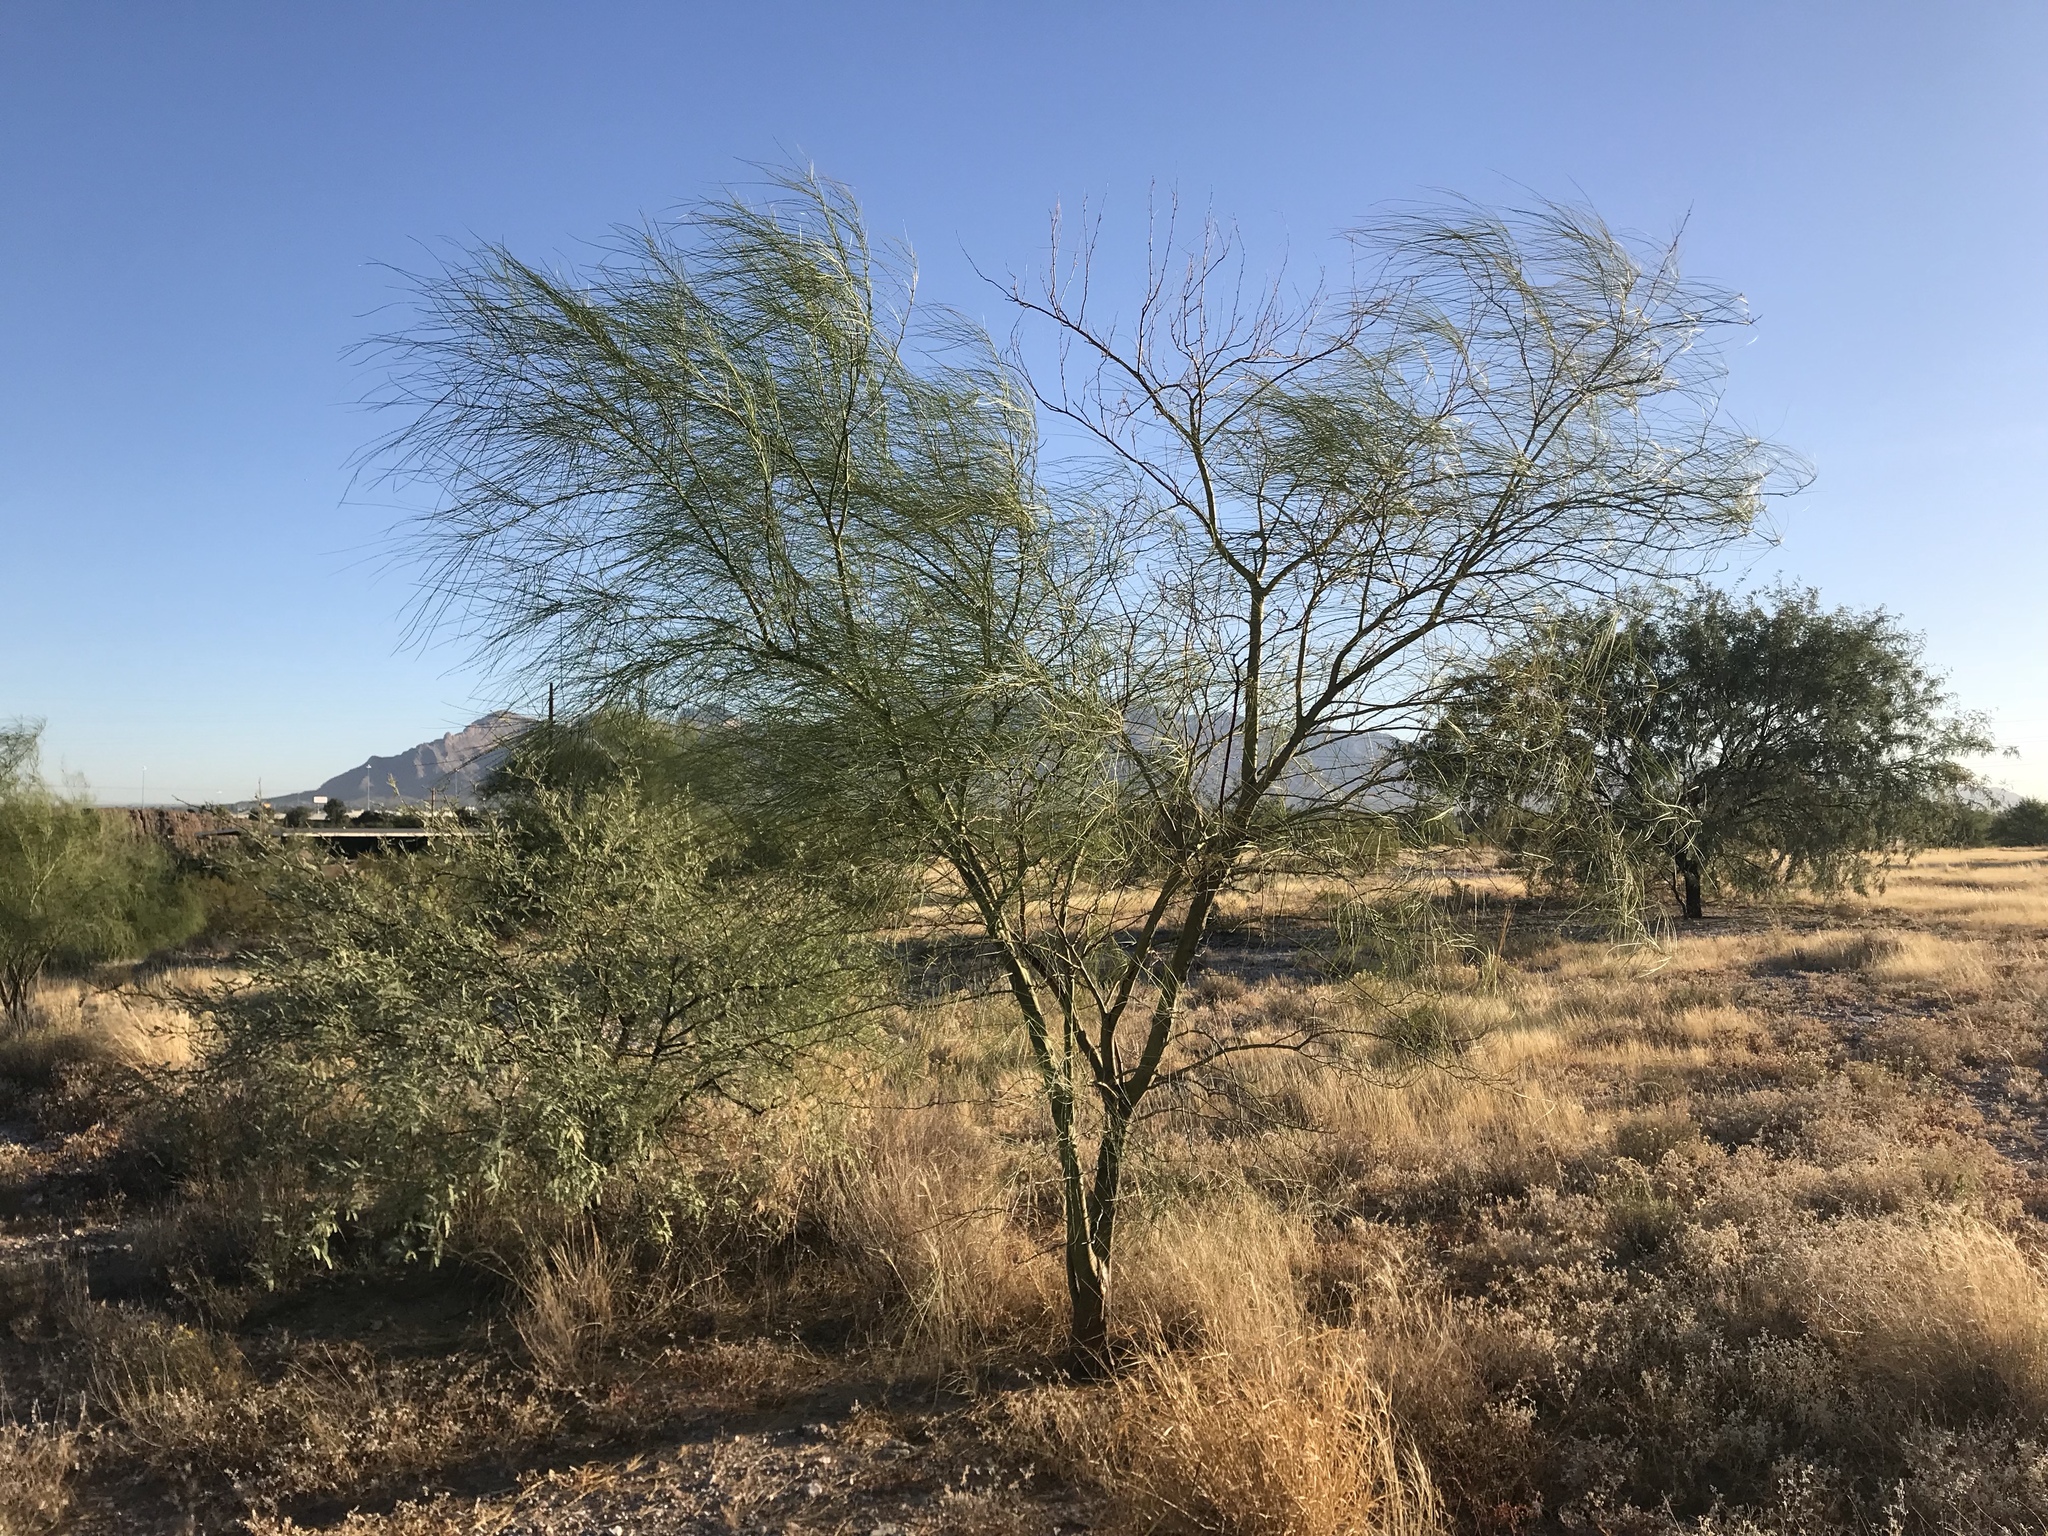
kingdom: Plantae
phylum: Tracheophyta
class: Magnoliopsida
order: Fabales
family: Fabaceae
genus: Parkinsonia
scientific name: Parkinsonia aculeata
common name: Jerusalem thorn
